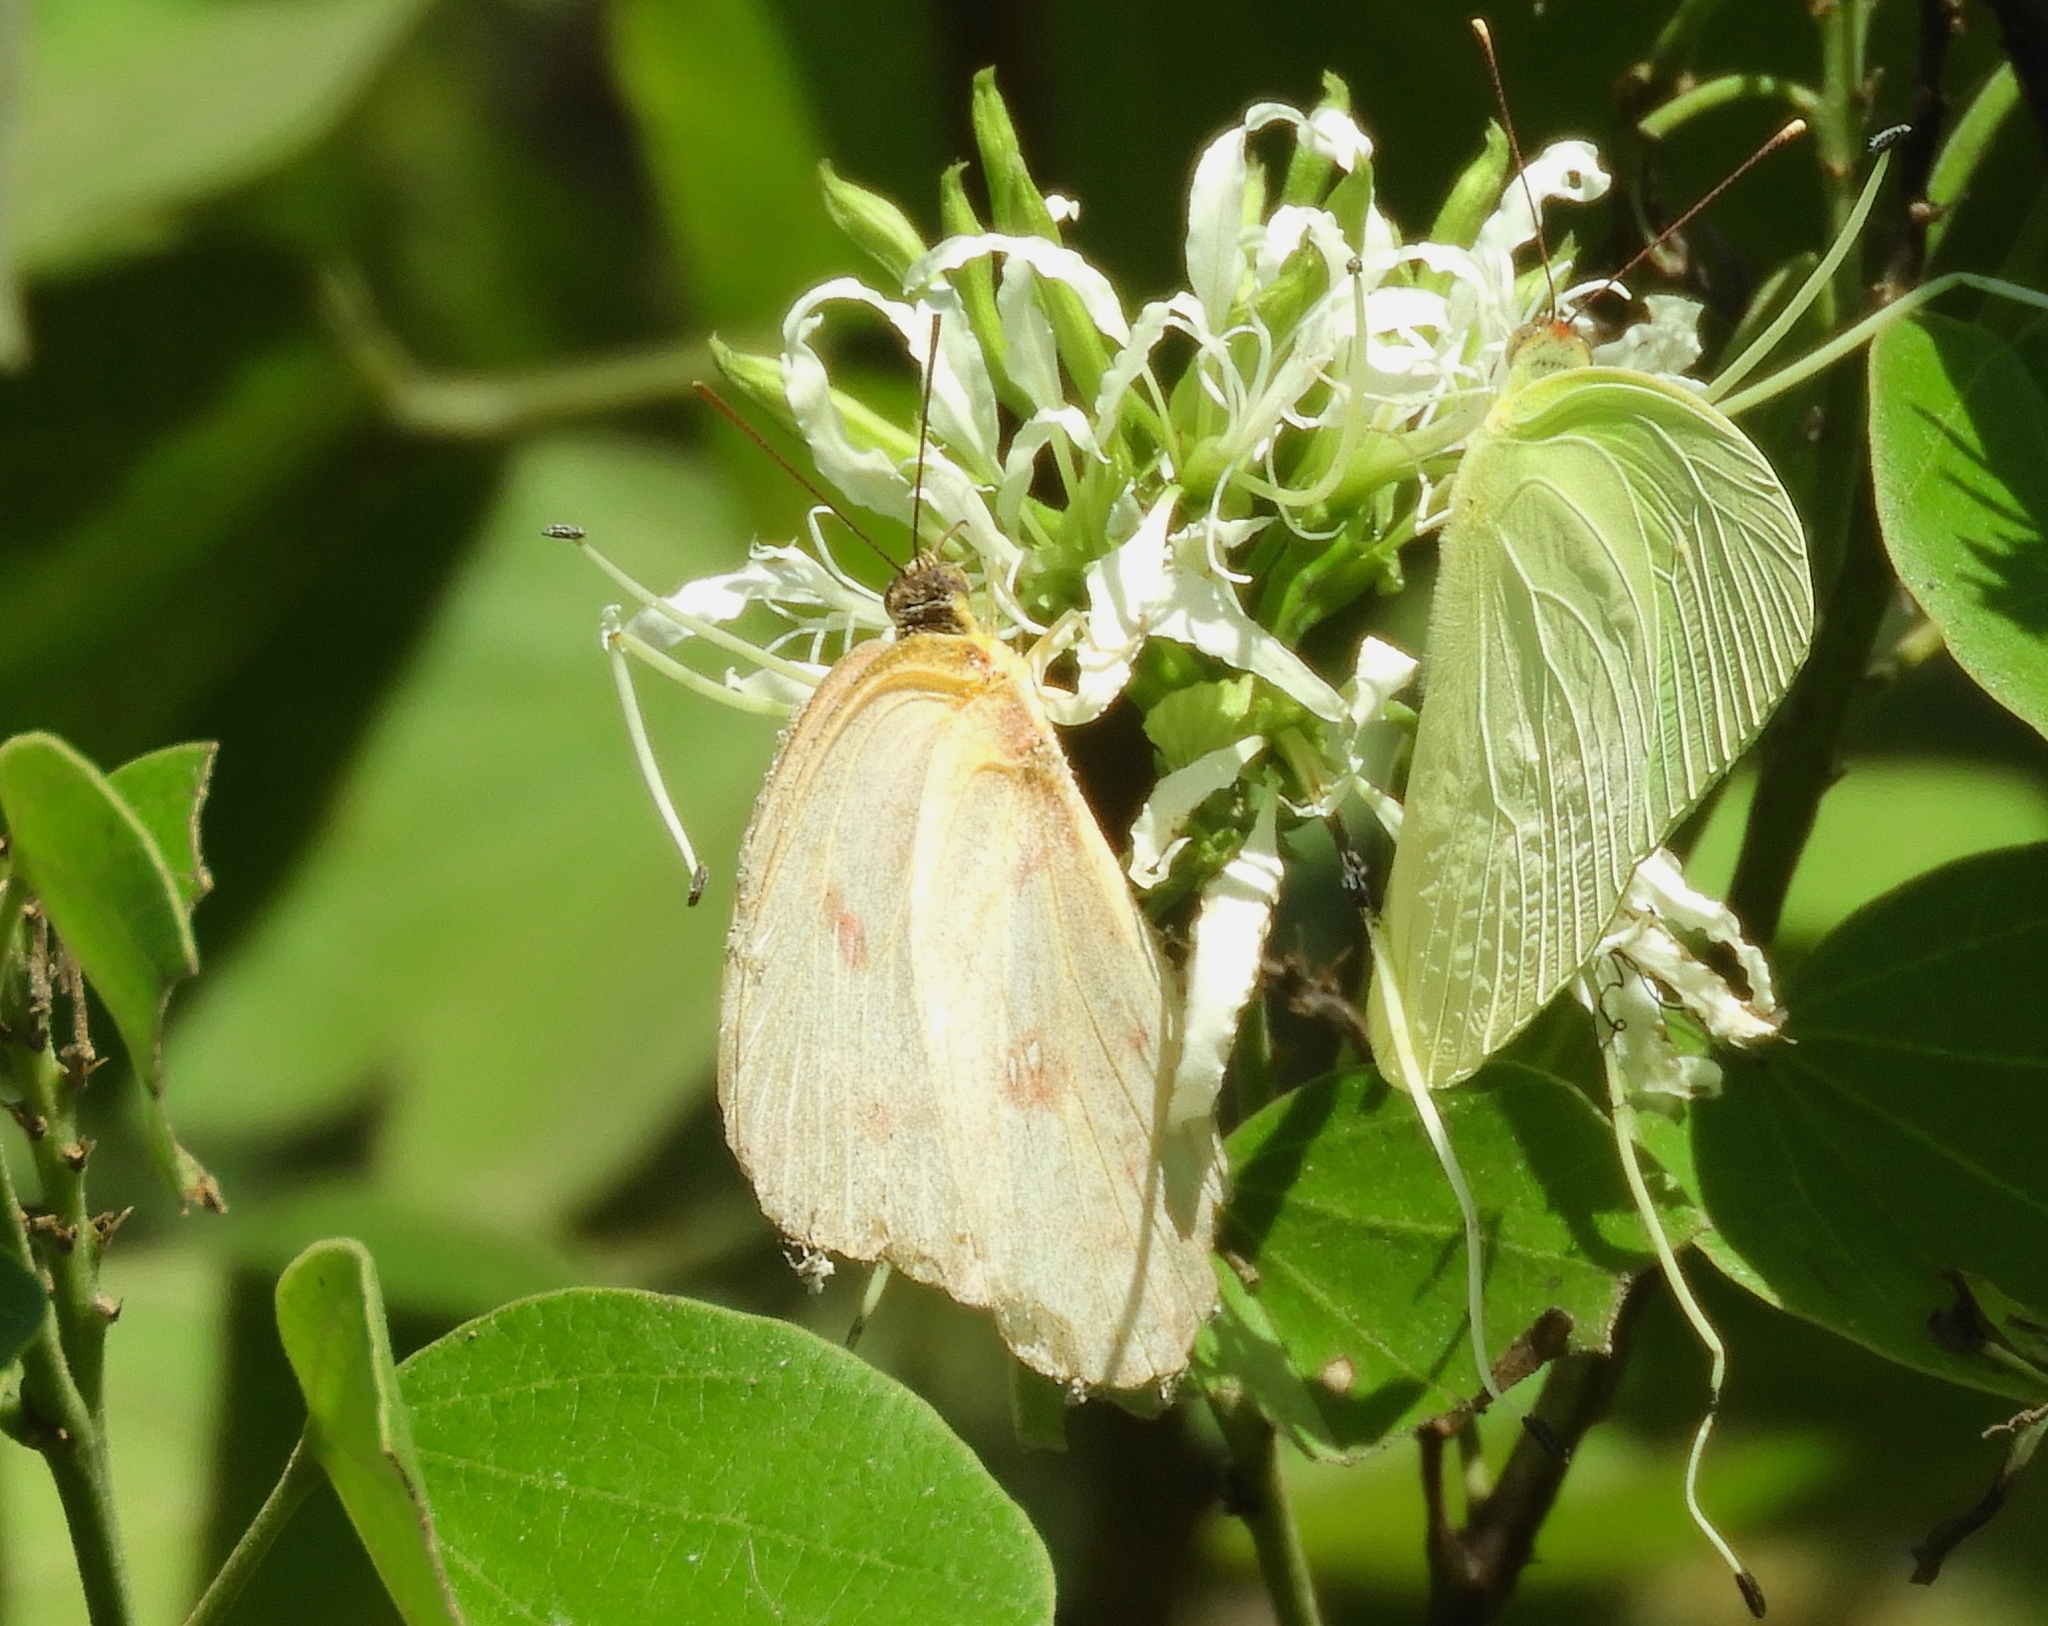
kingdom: Animalia
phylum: Arthropoda
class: Insecta
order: Lepidoptera
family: Pieridae
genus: Aphrissa
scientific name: Aphrissa statira
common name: Statira sulphur
